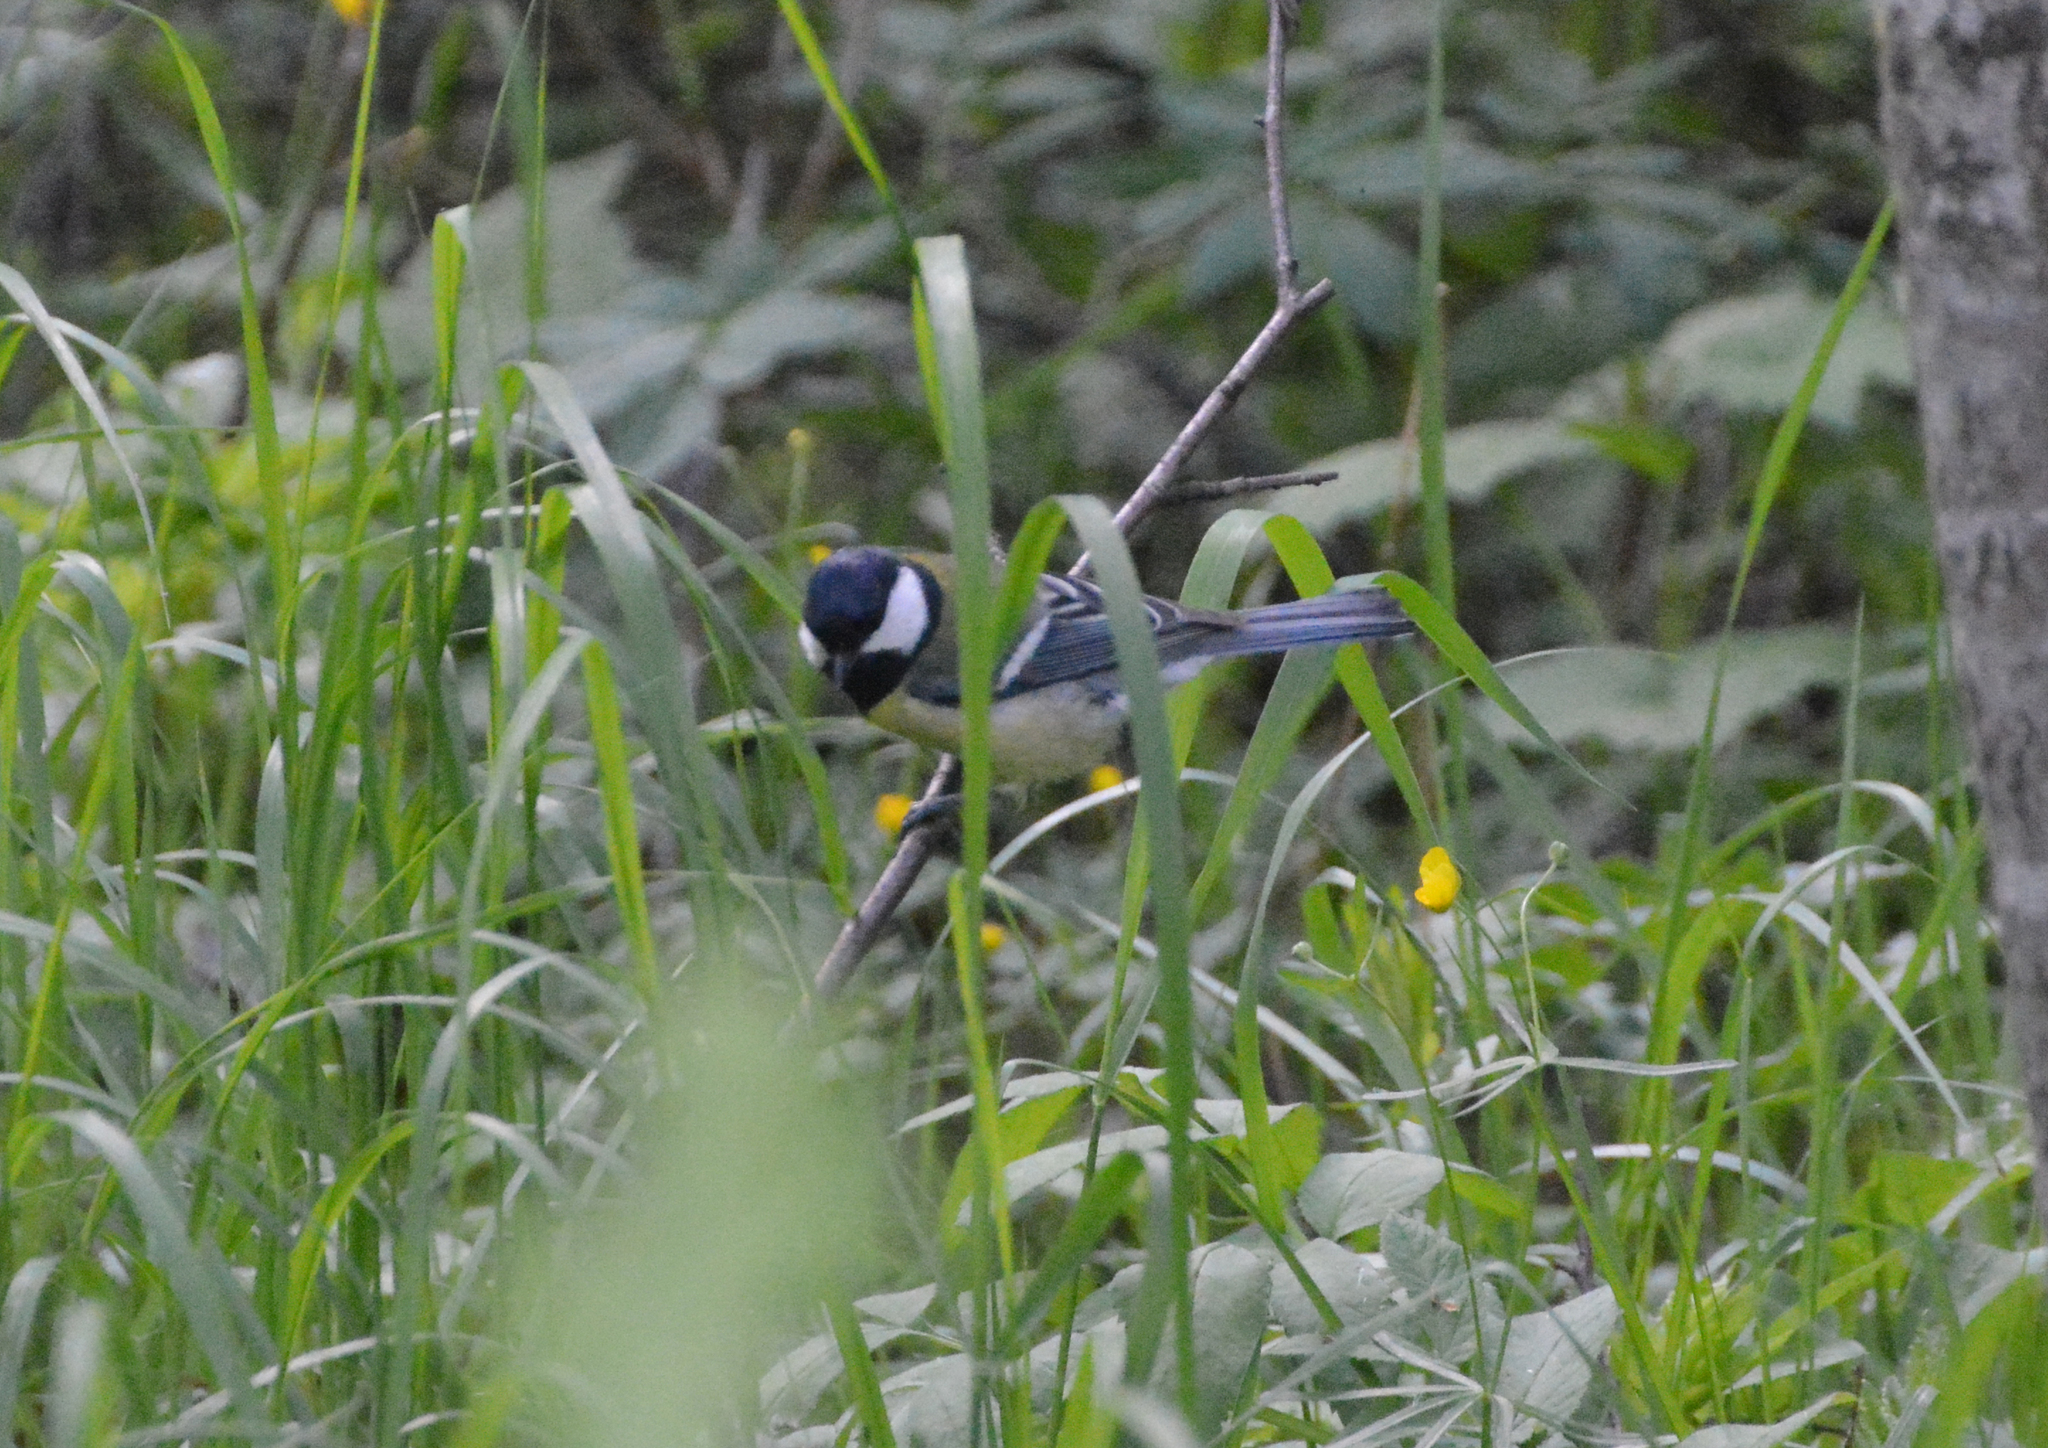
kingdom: Animalia
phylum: Chordata
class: Aves
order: Passeriformes
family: Paridae
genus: Parus
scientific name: Parus major
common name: Great tit
